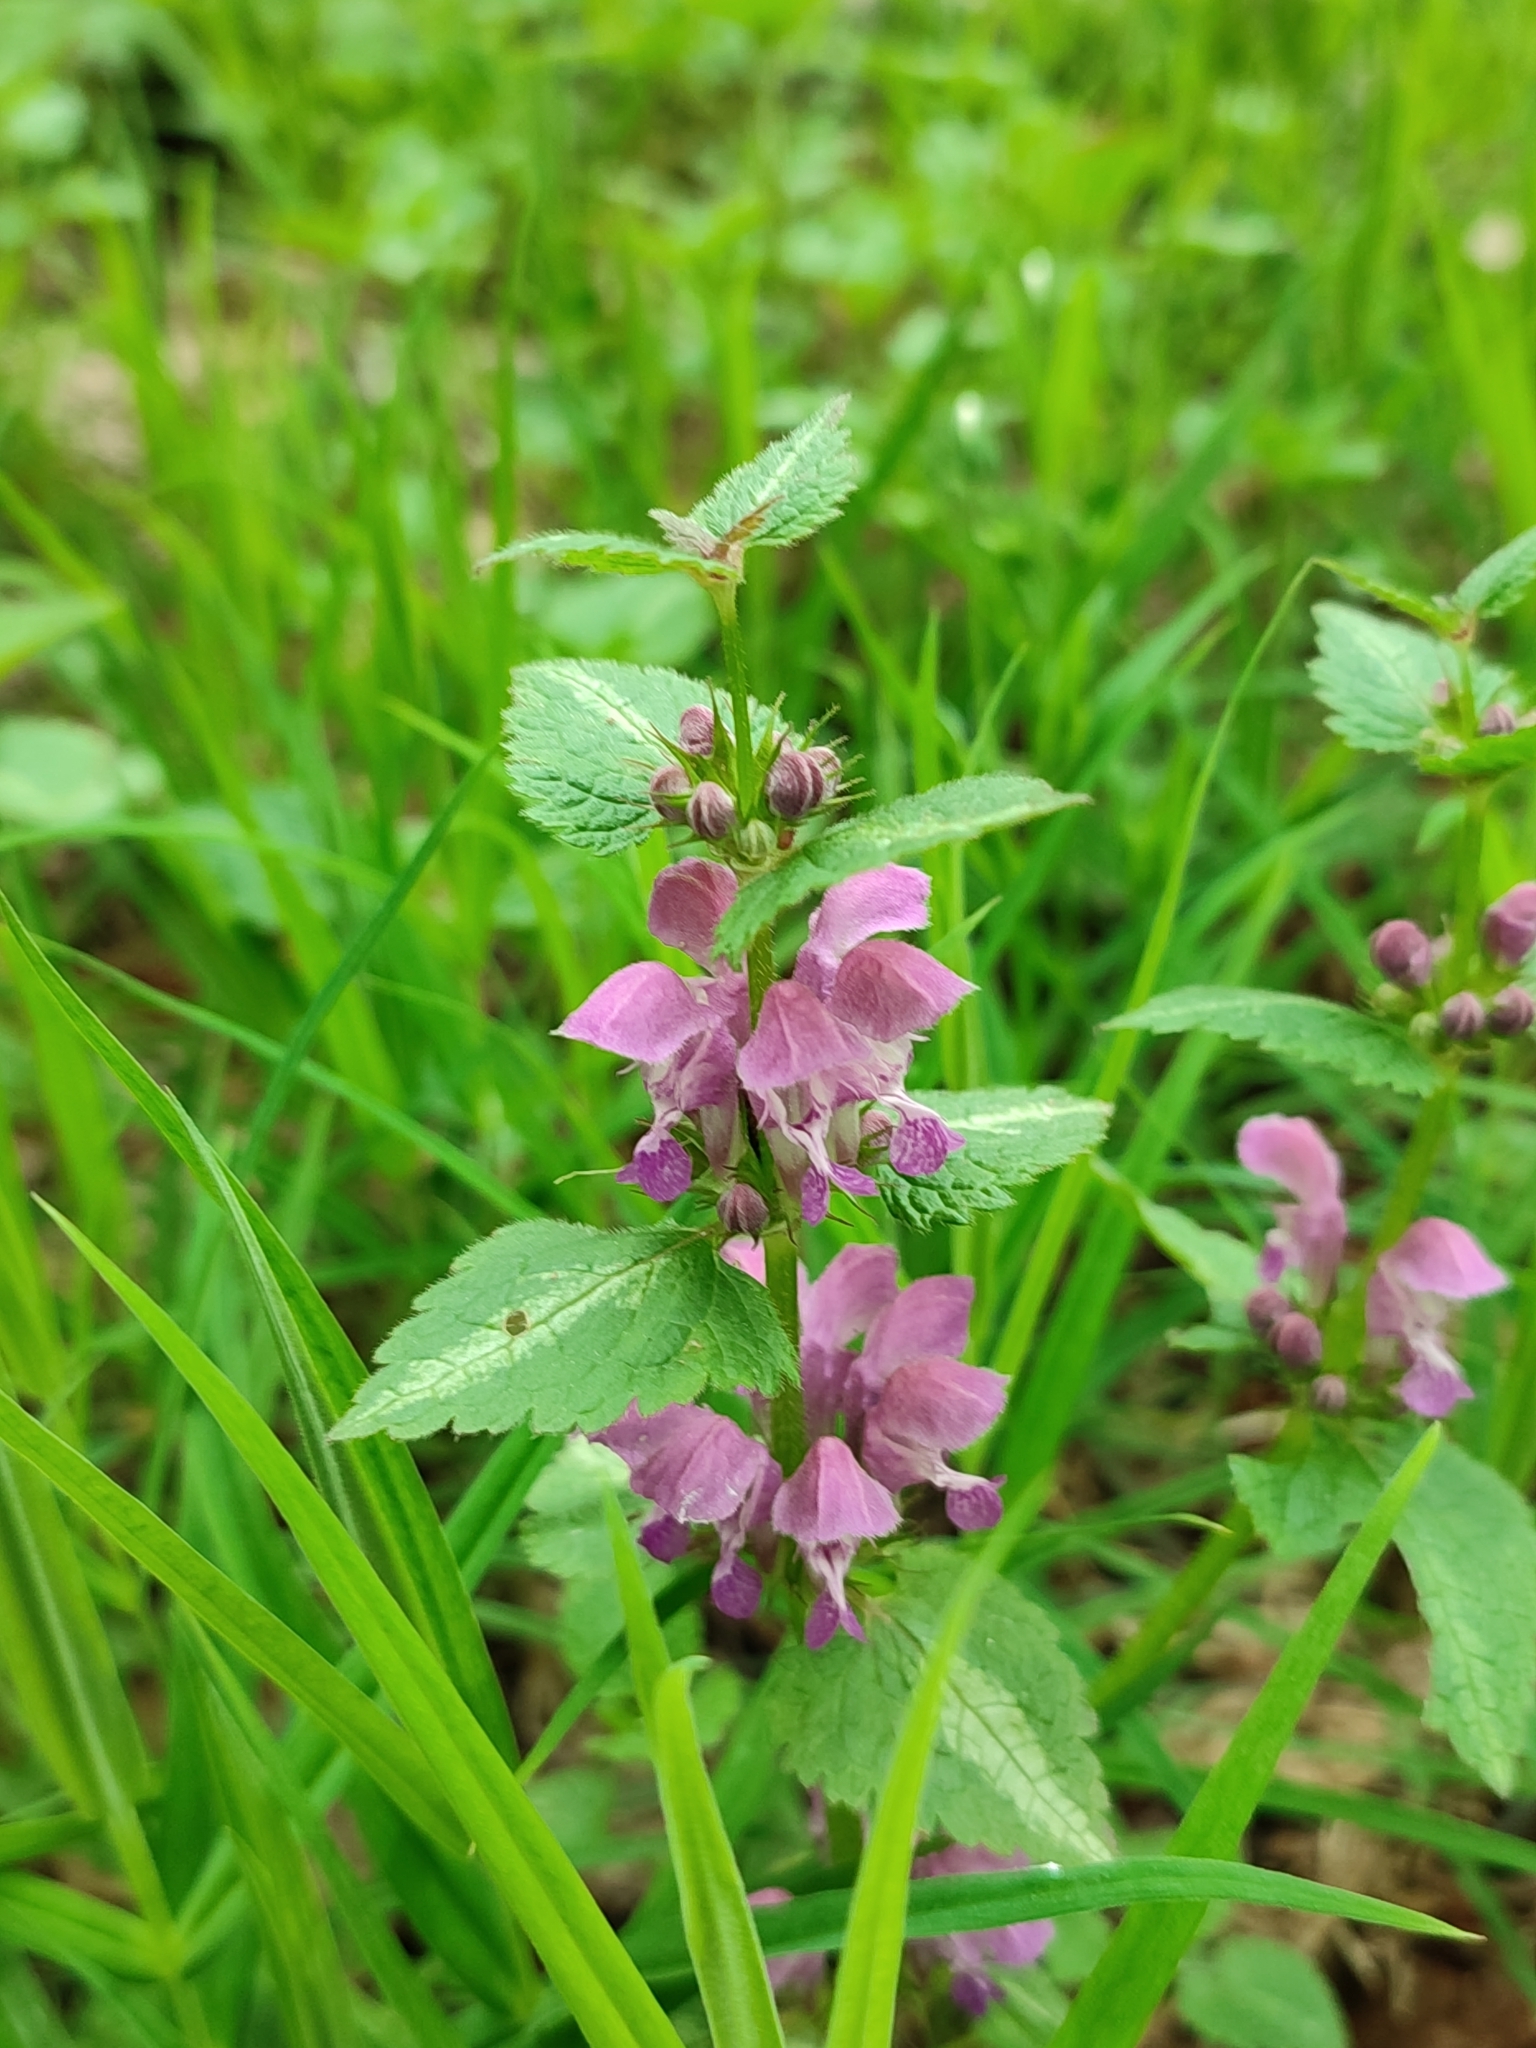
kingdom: Plantae
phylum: Tracheophyta
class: Magnoliopsida
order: Lamiales
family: Lamiaceae
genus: Lamium
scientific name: Lamium maculatum
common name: Spotted dead-nettle
